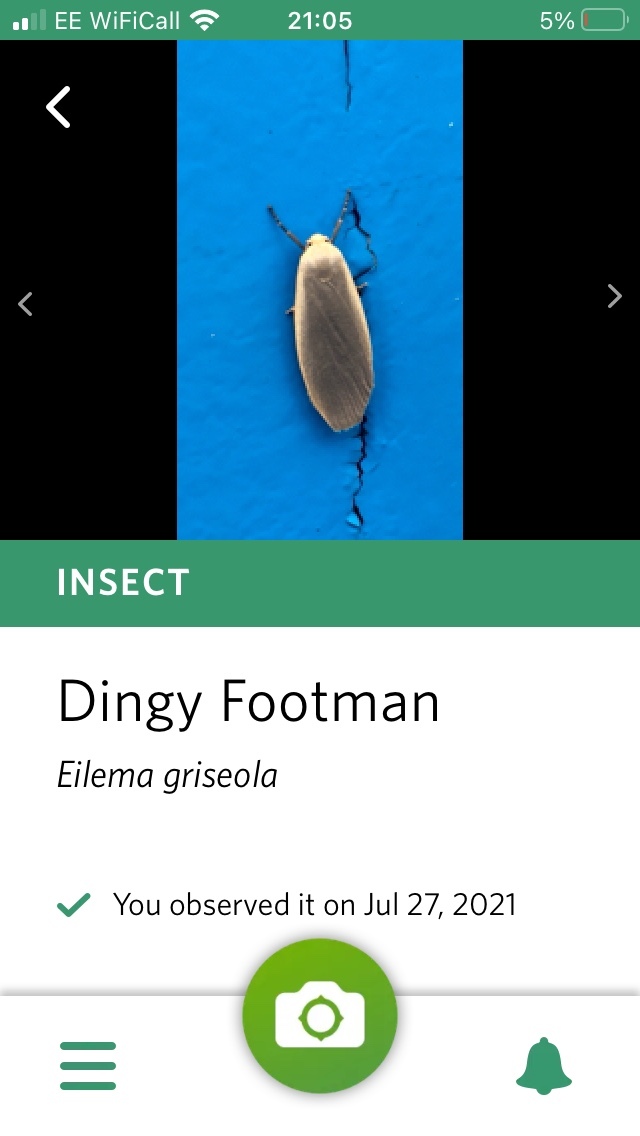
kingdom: Animalia
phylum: Arthropoda
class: Insecta
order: Lepidoptera
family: Erebidae
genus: Collita
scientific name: Collita griseola
